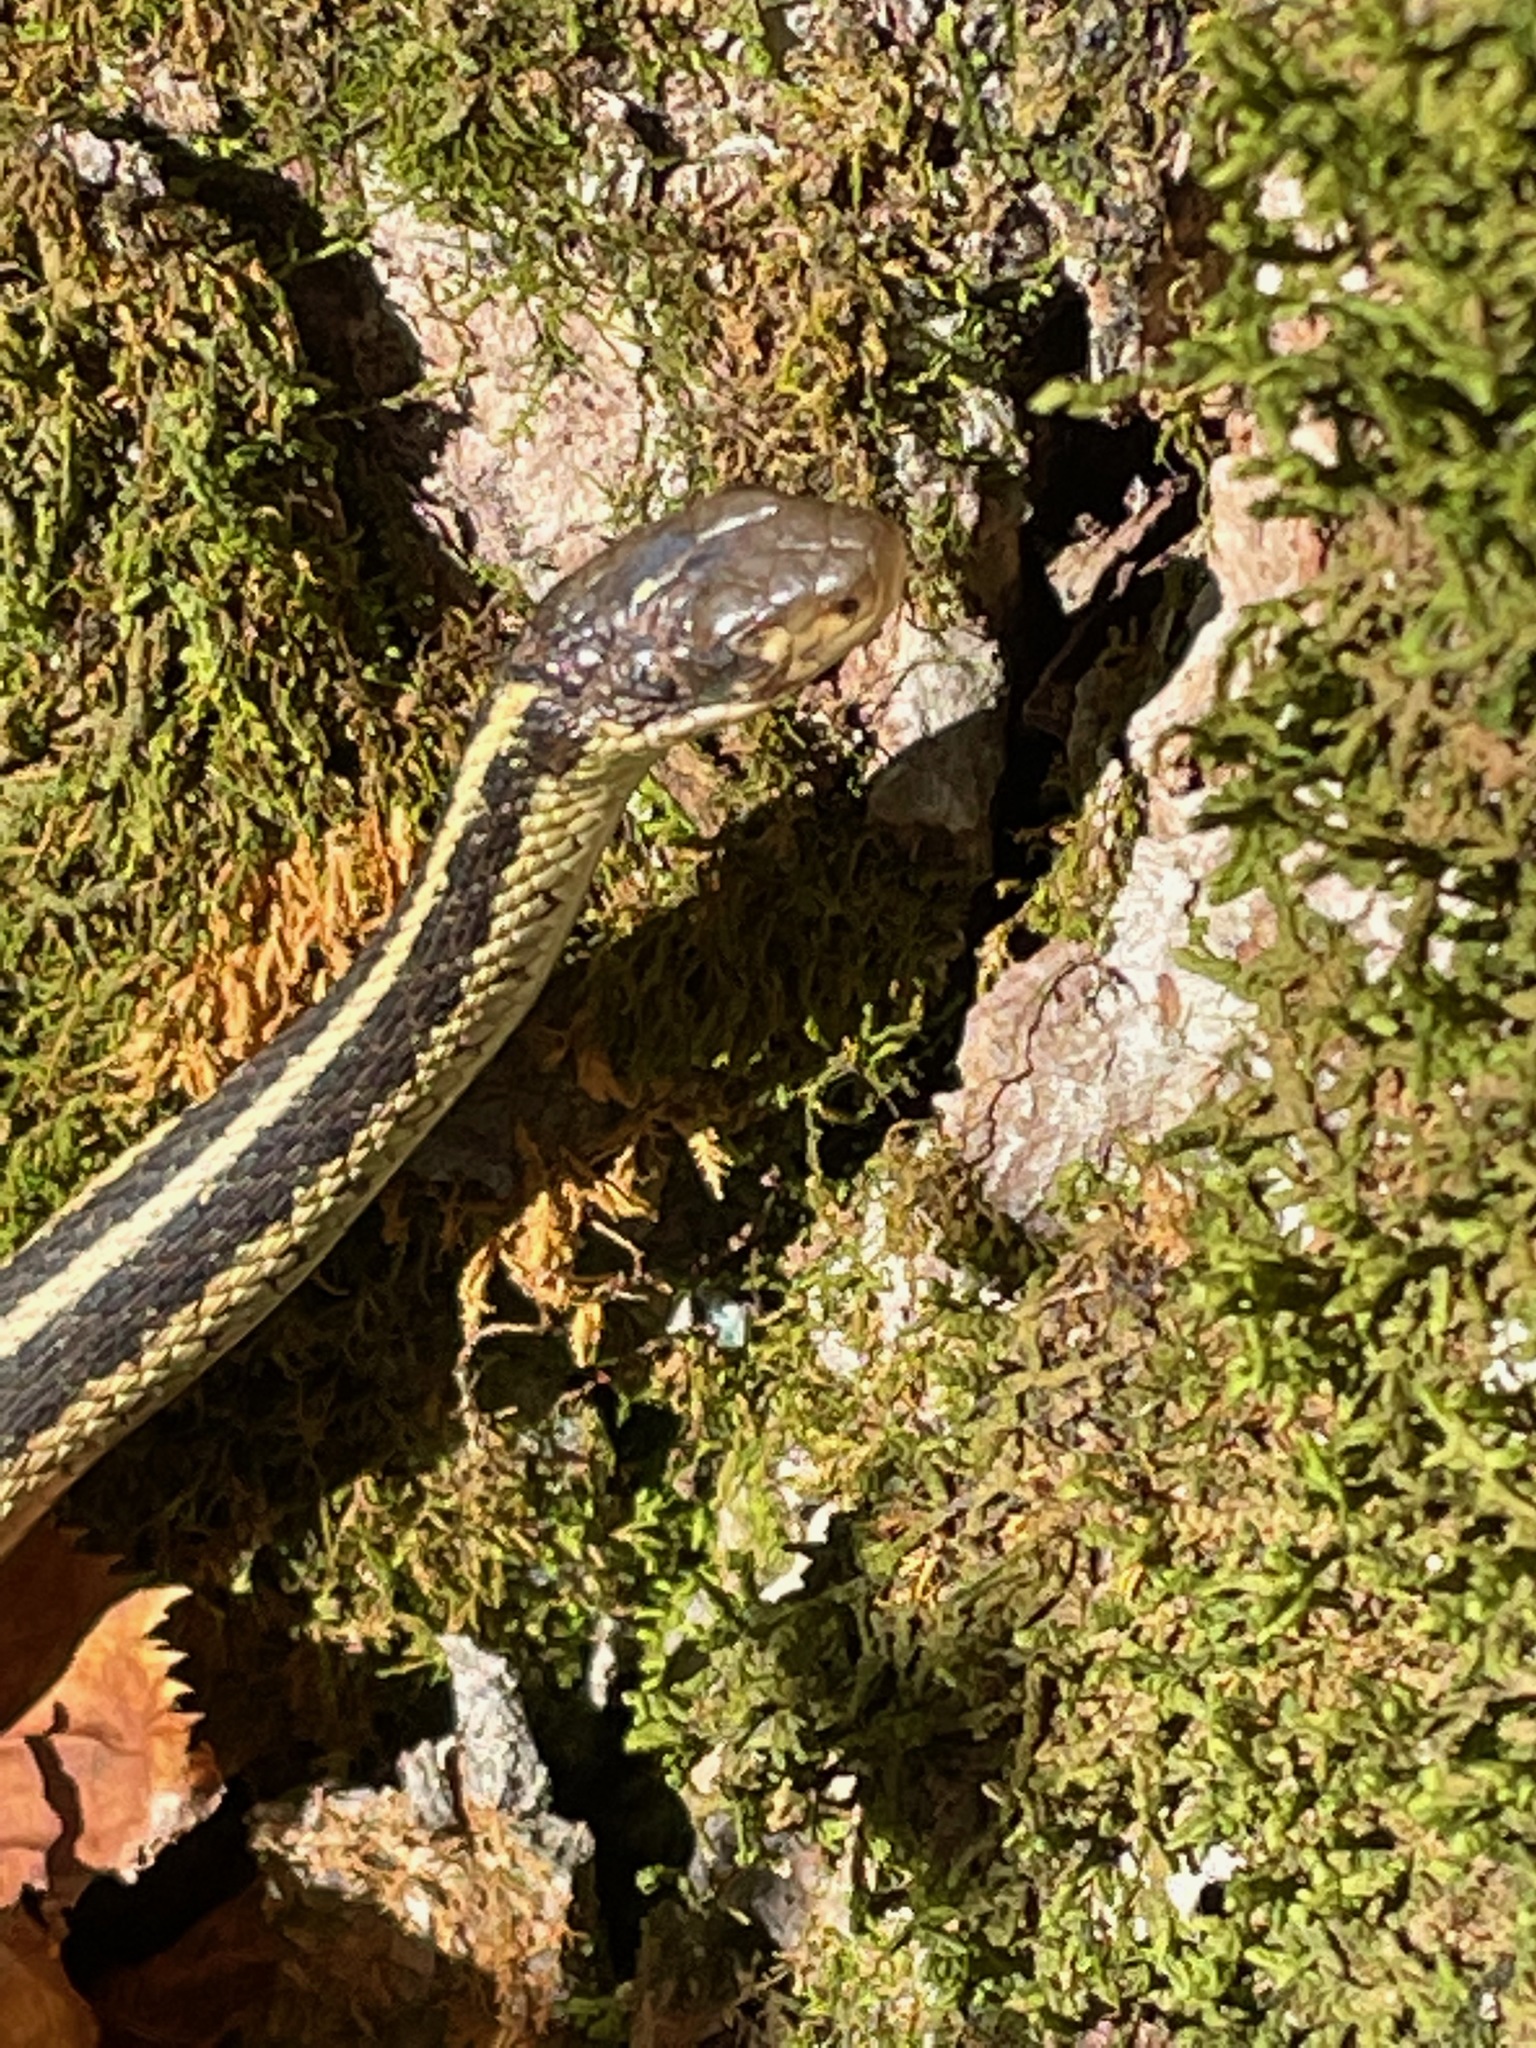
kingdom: Animalia
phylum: Chordata
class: Squamata
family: Colubridae
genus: Thamnophis
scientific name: Thamnophis sirtalis
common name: Common garter snake
